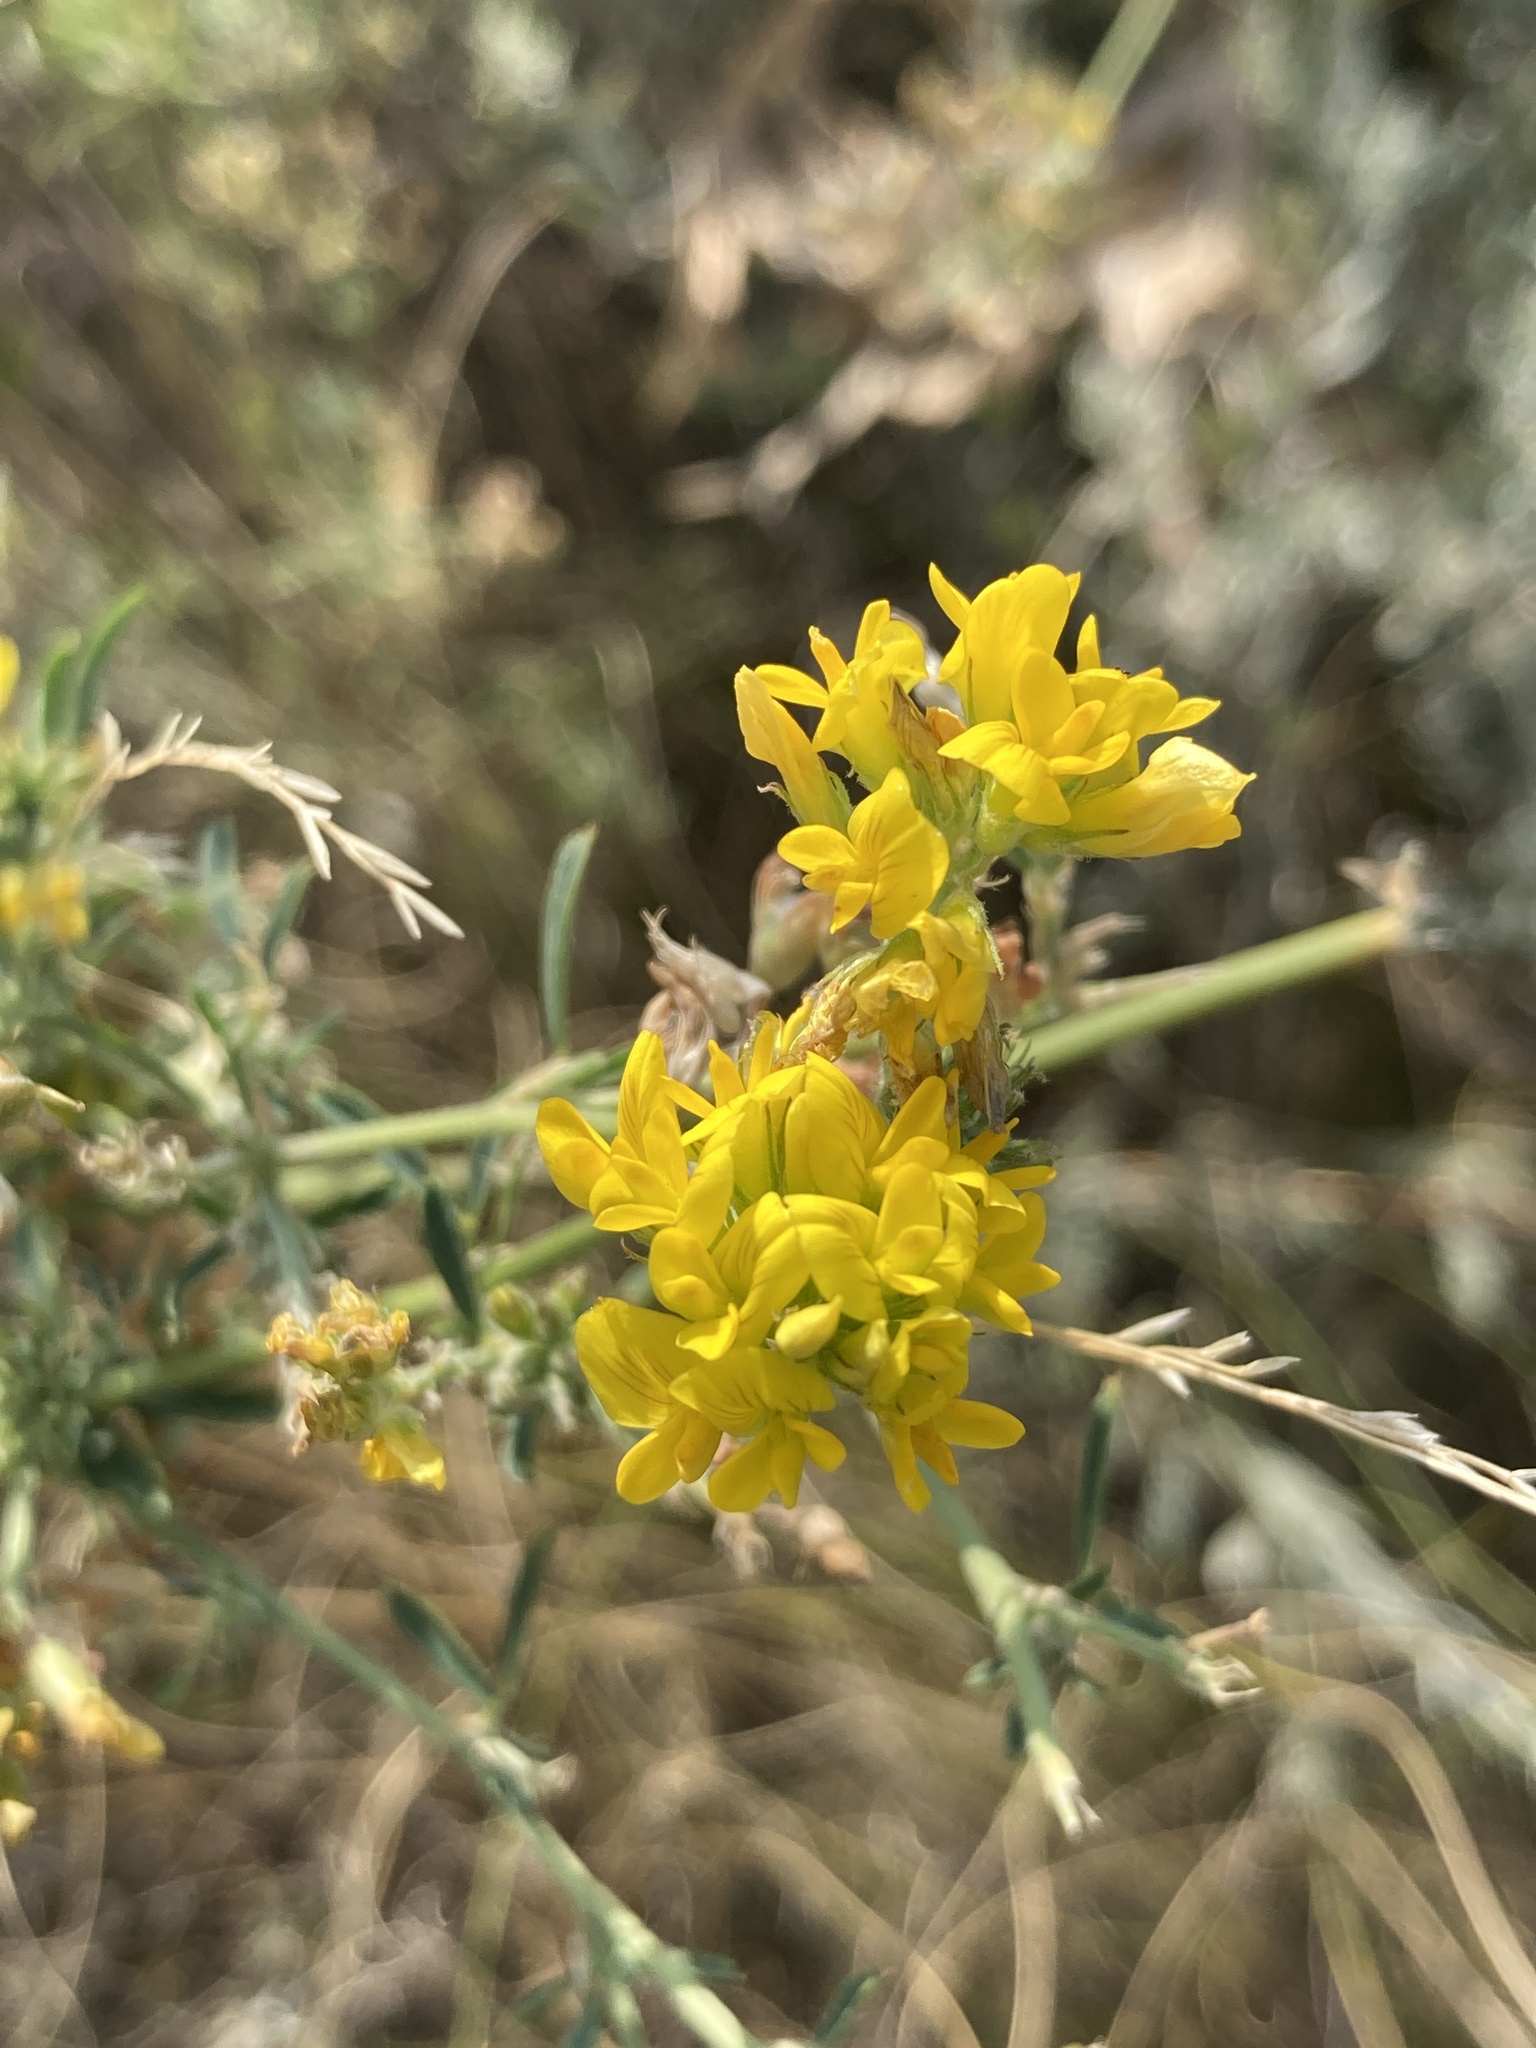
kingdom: Plantae
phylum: Tracheophyta
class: Magnoliopsida
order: Fabales
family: Fabaceae
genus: Medicago
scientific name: Medicago falcata
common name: Sickle medick
